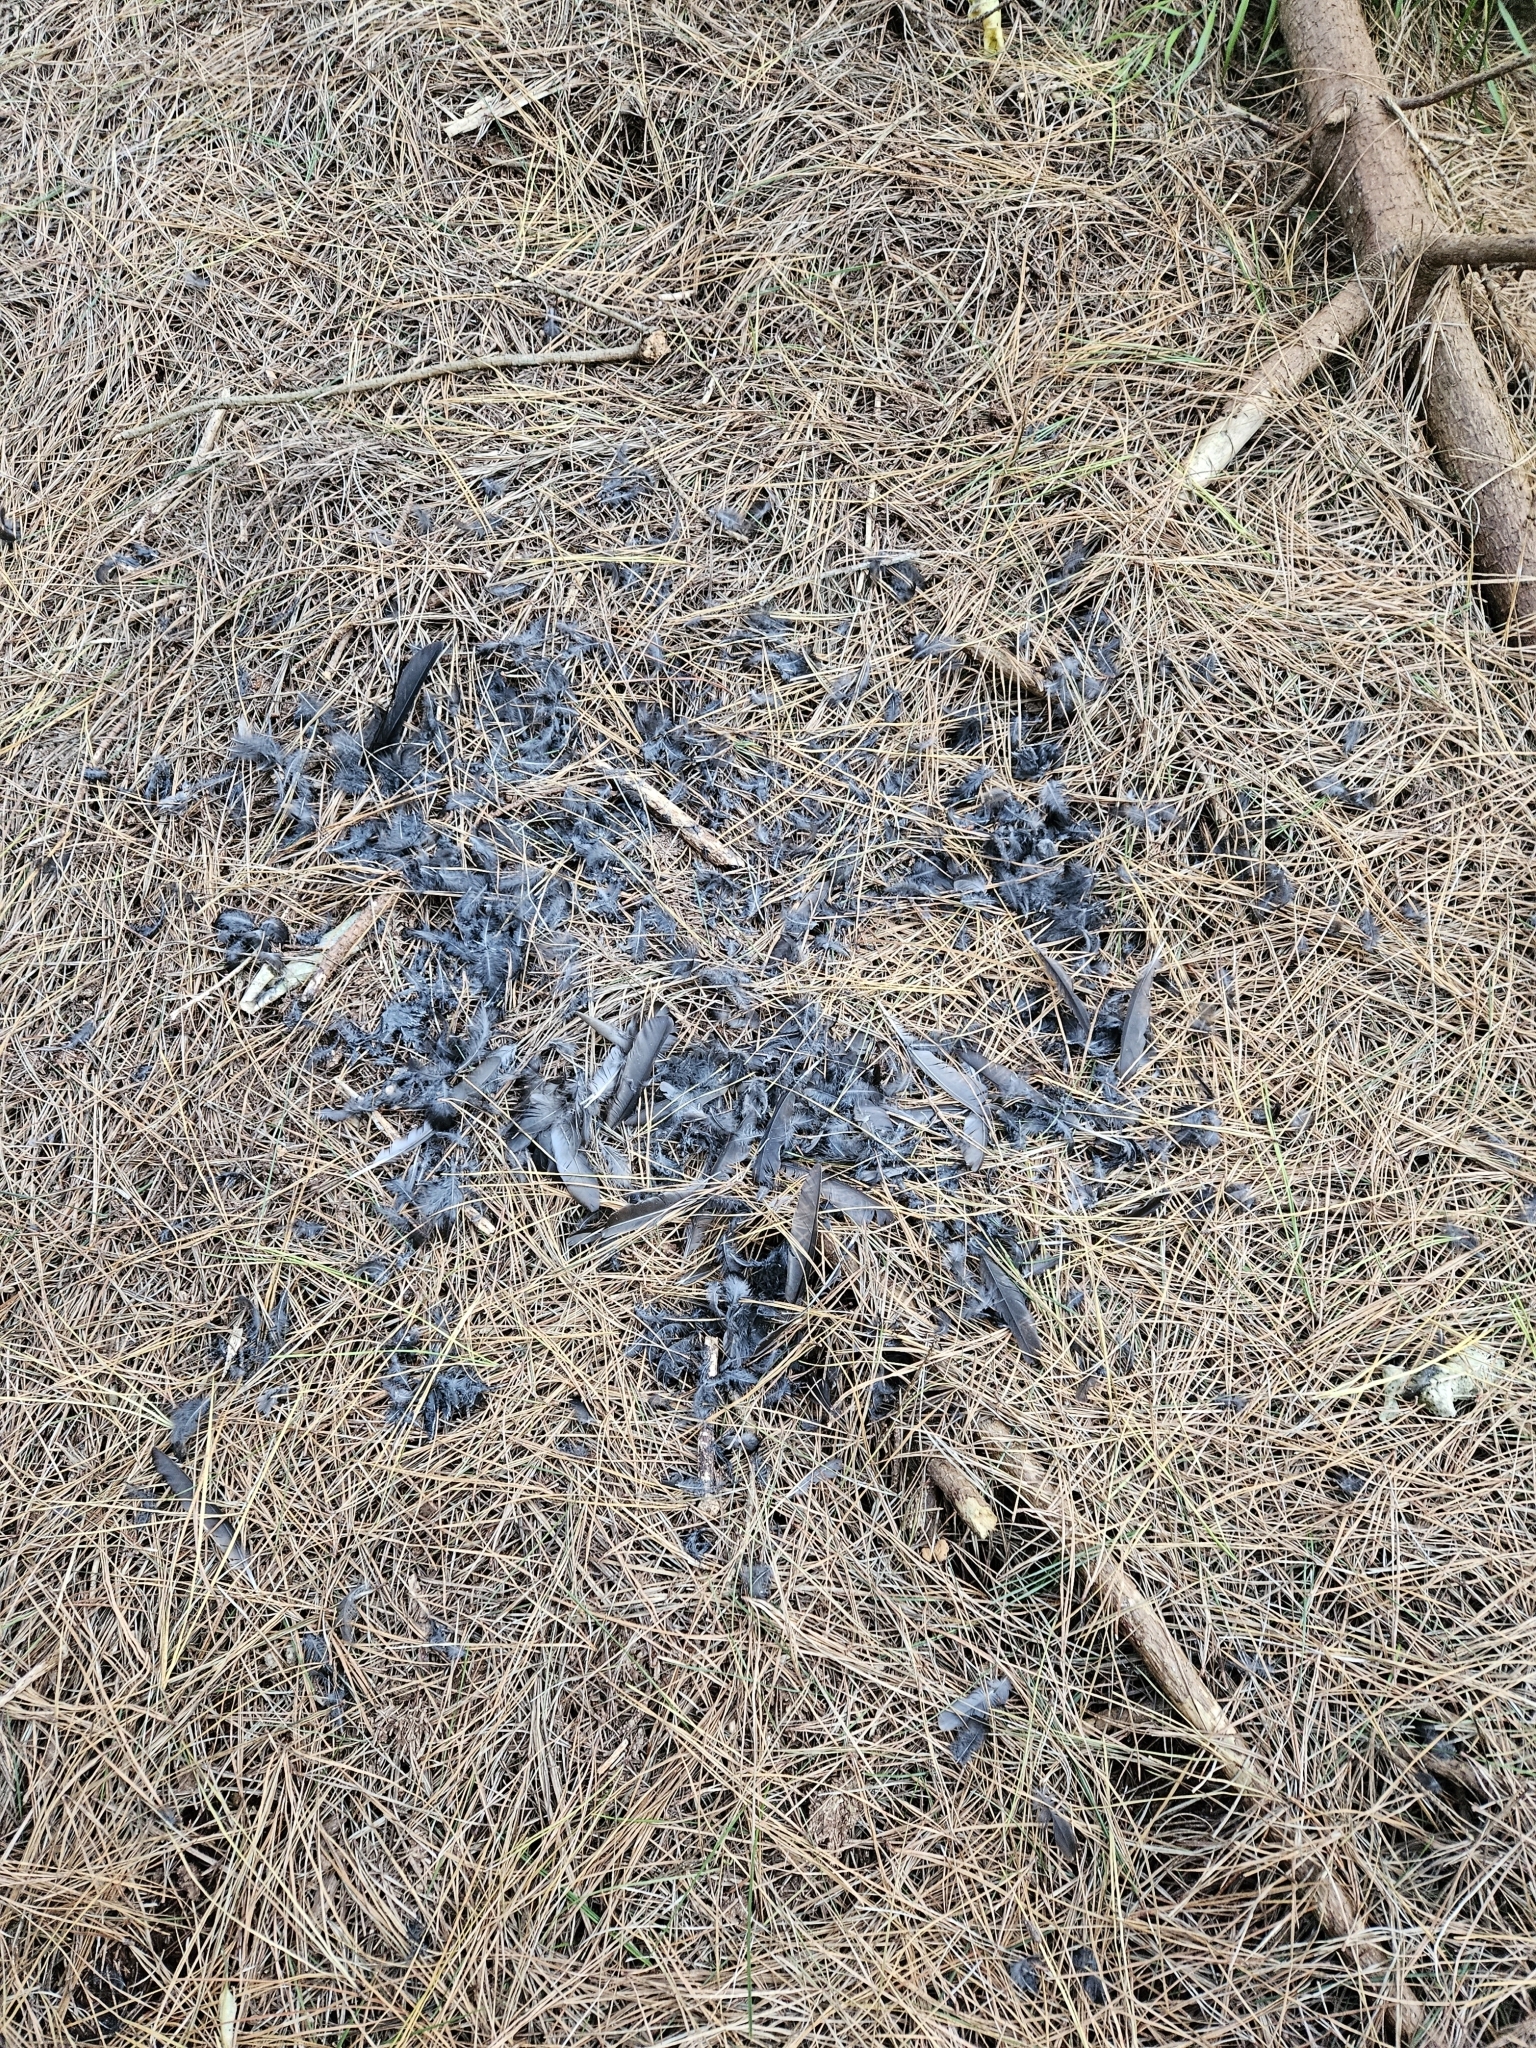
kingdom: Animalia
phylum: Chordata
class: Aves
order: Passeriformes
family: Turdidae
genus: Turdus
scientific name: Turdus merula
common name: Common blackbird
